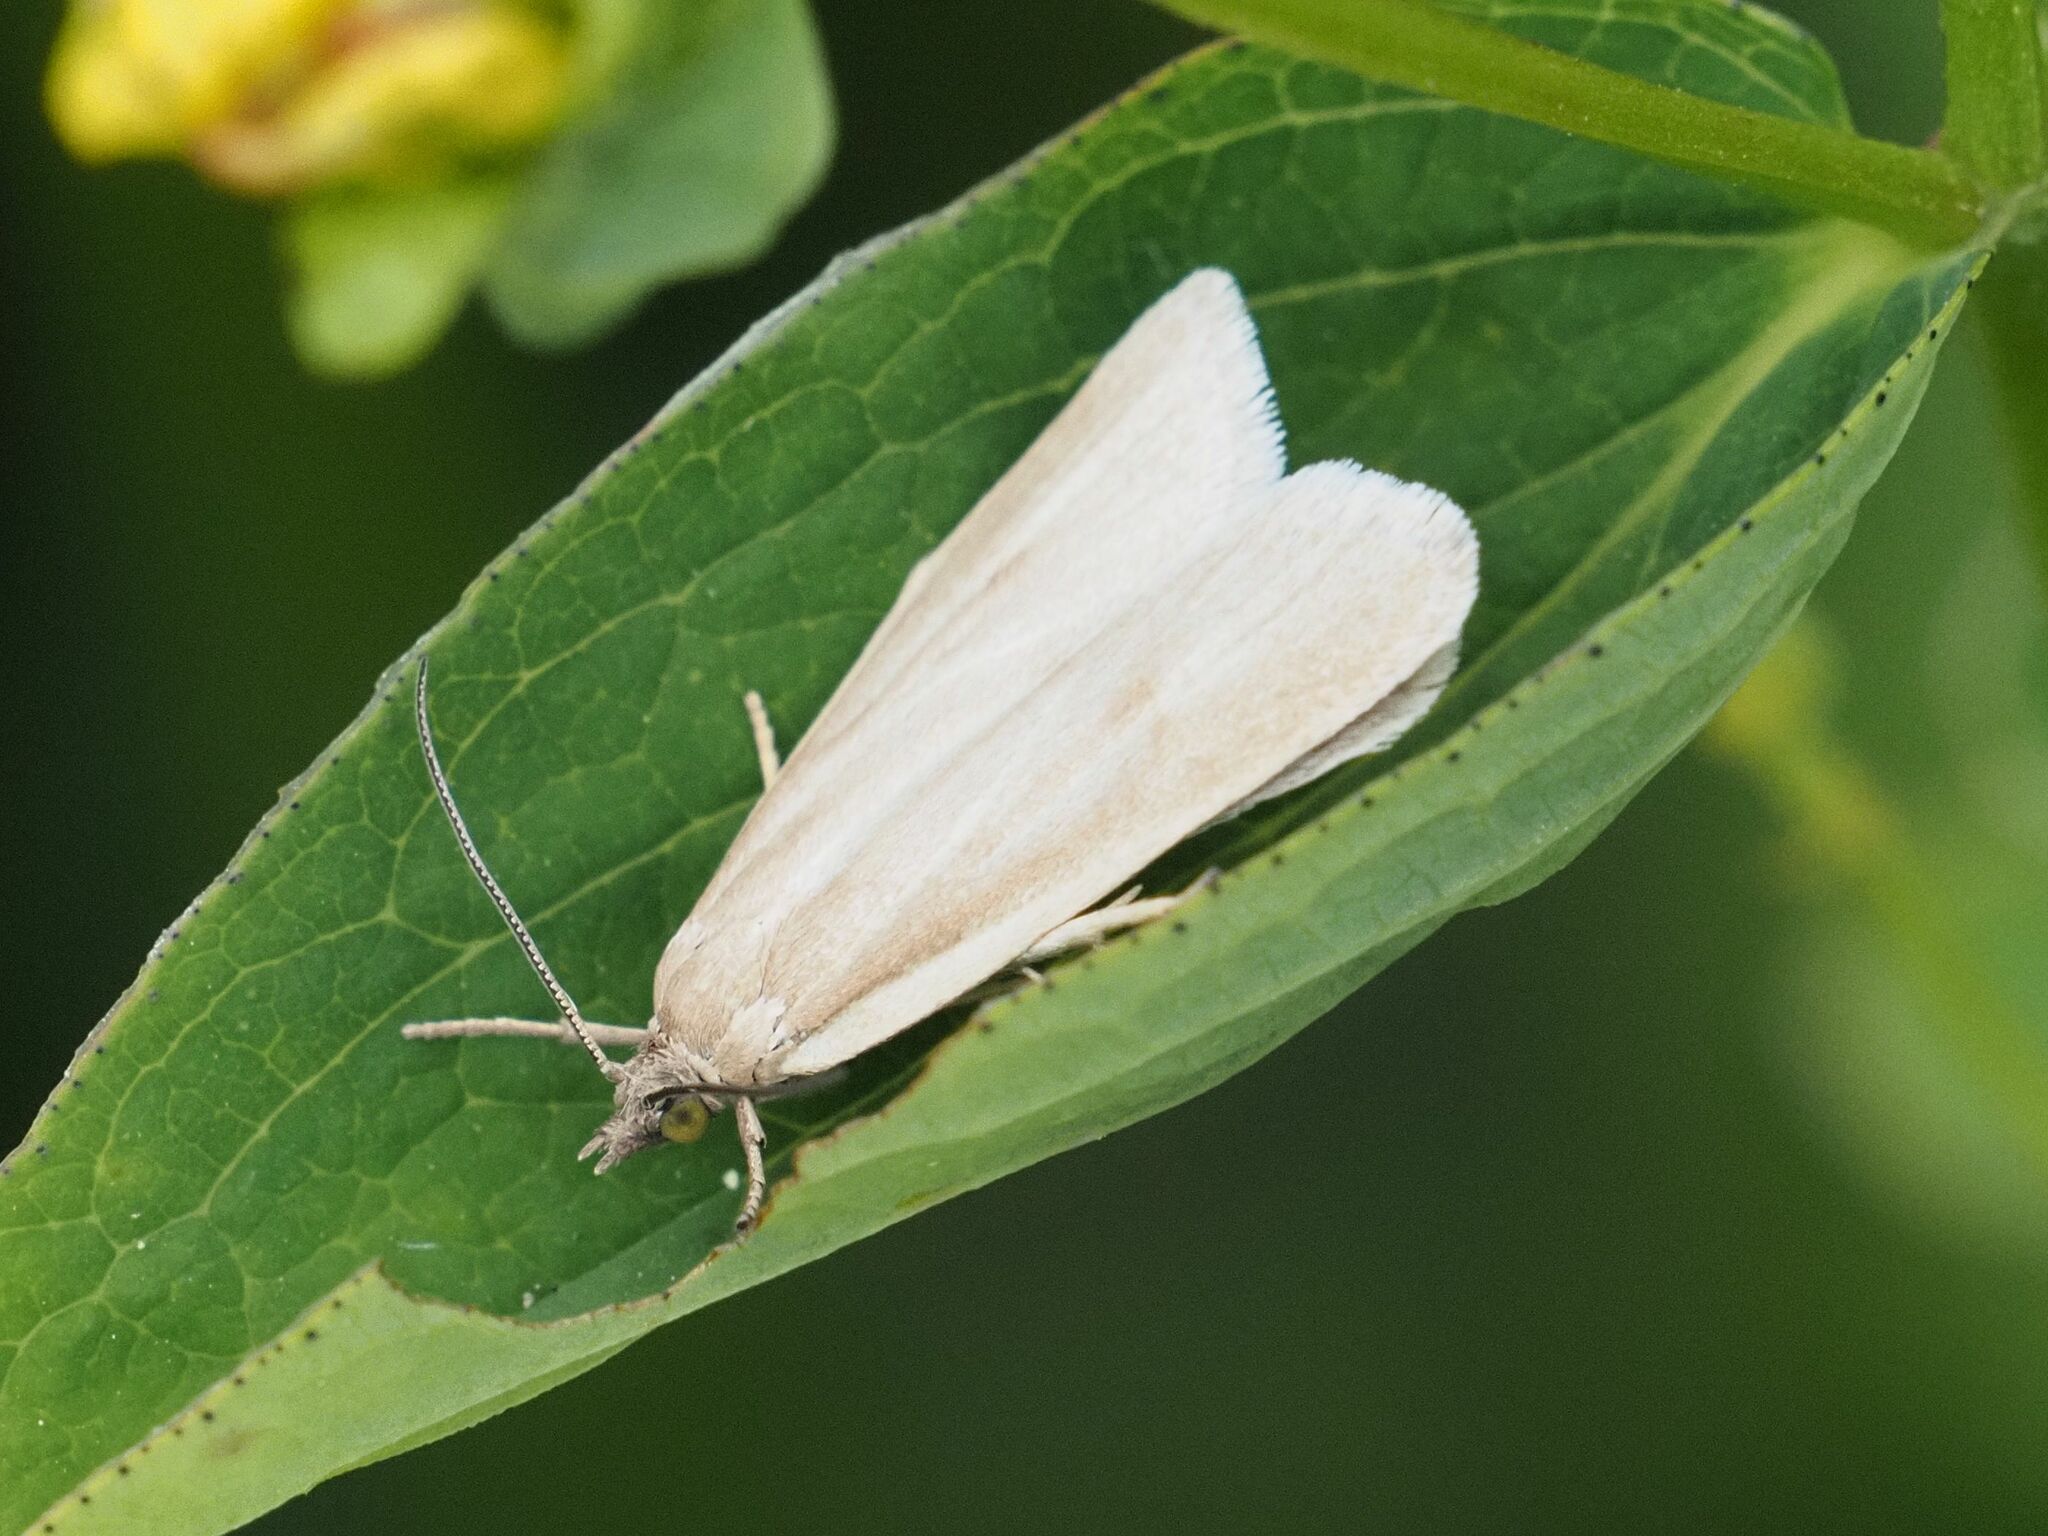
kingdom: Animalia
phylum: Arthropoda
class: Insecta
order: Lepidoptera
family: Tortricidae
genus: Eana
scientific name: Eana osseana
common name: Dotted shade
